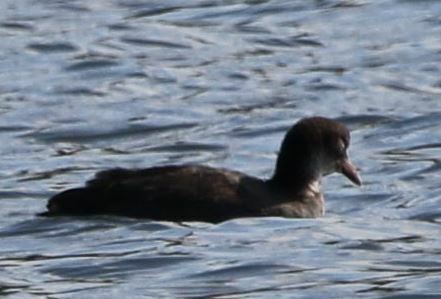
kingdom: Animalia
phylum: Chordata
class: Aves
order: Gruiformes
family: Rallidae
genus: Fulica
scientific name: Fulica atra
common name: Eurasian coot
